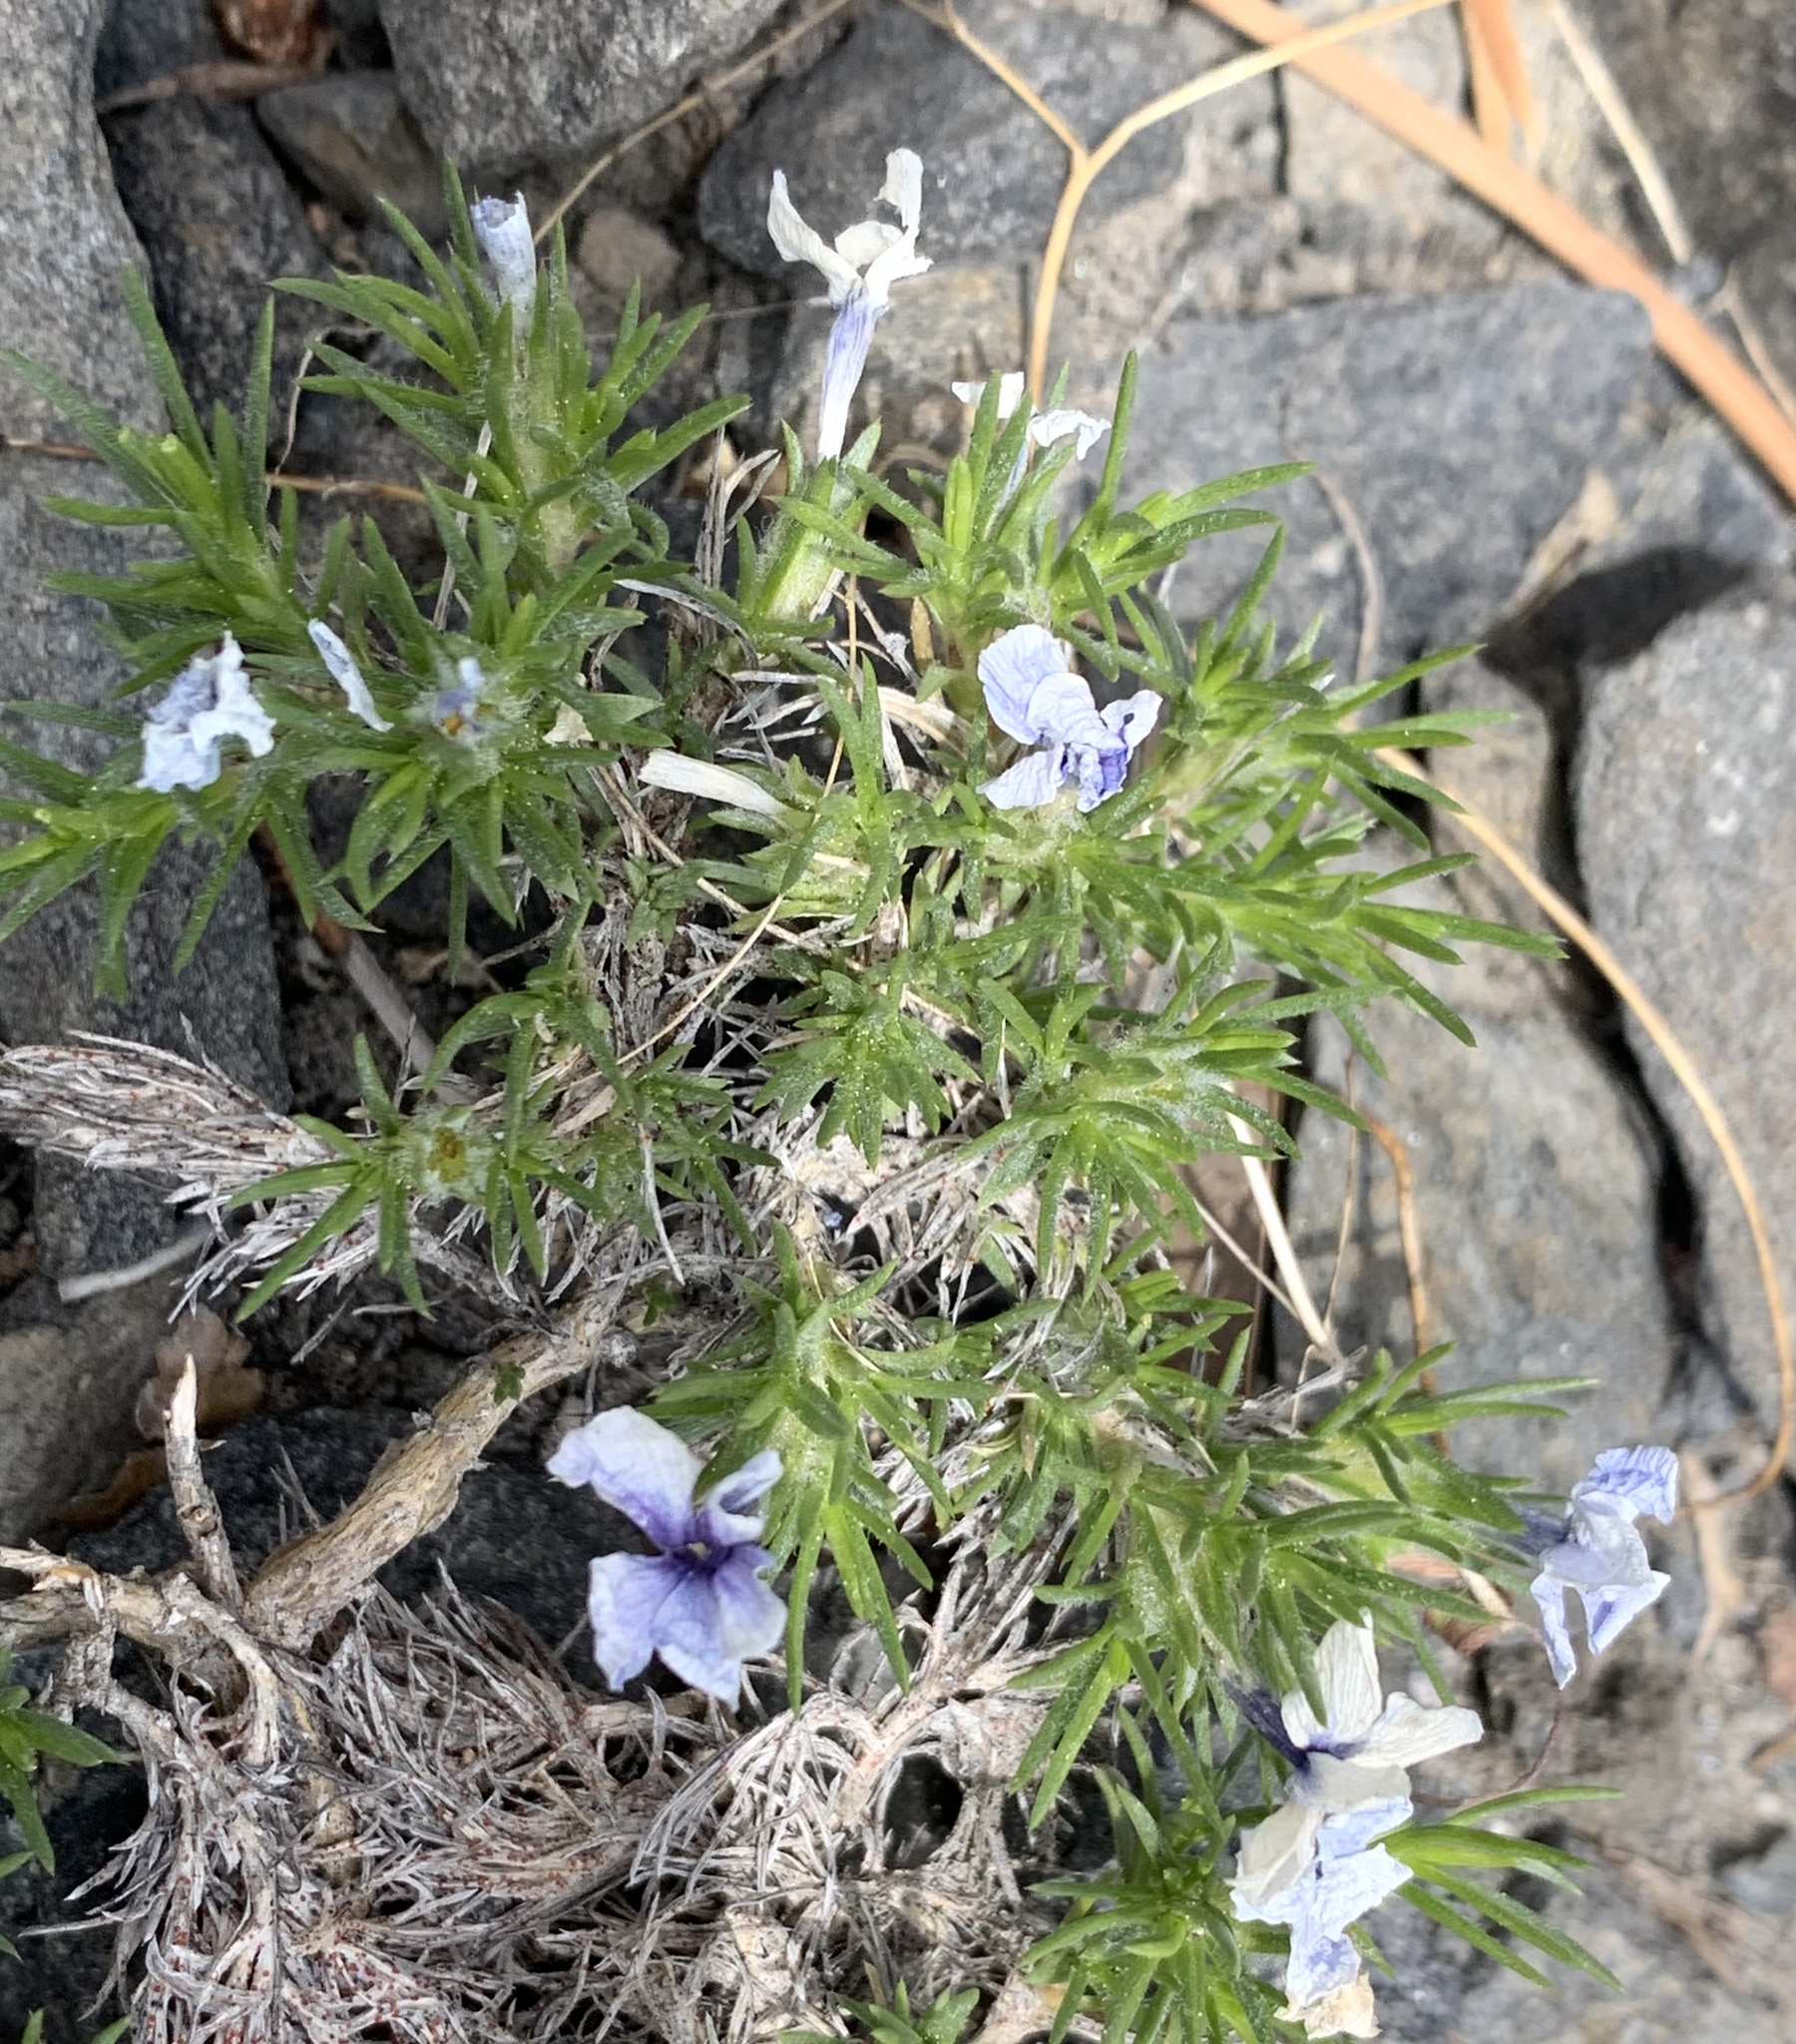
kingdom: Plantae
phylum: Tracheophyta
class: Magnoliopsida
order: Ericales
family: Polemoniaceae
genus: Phlox
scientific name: Phlox diffusa
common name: Mat phlox
